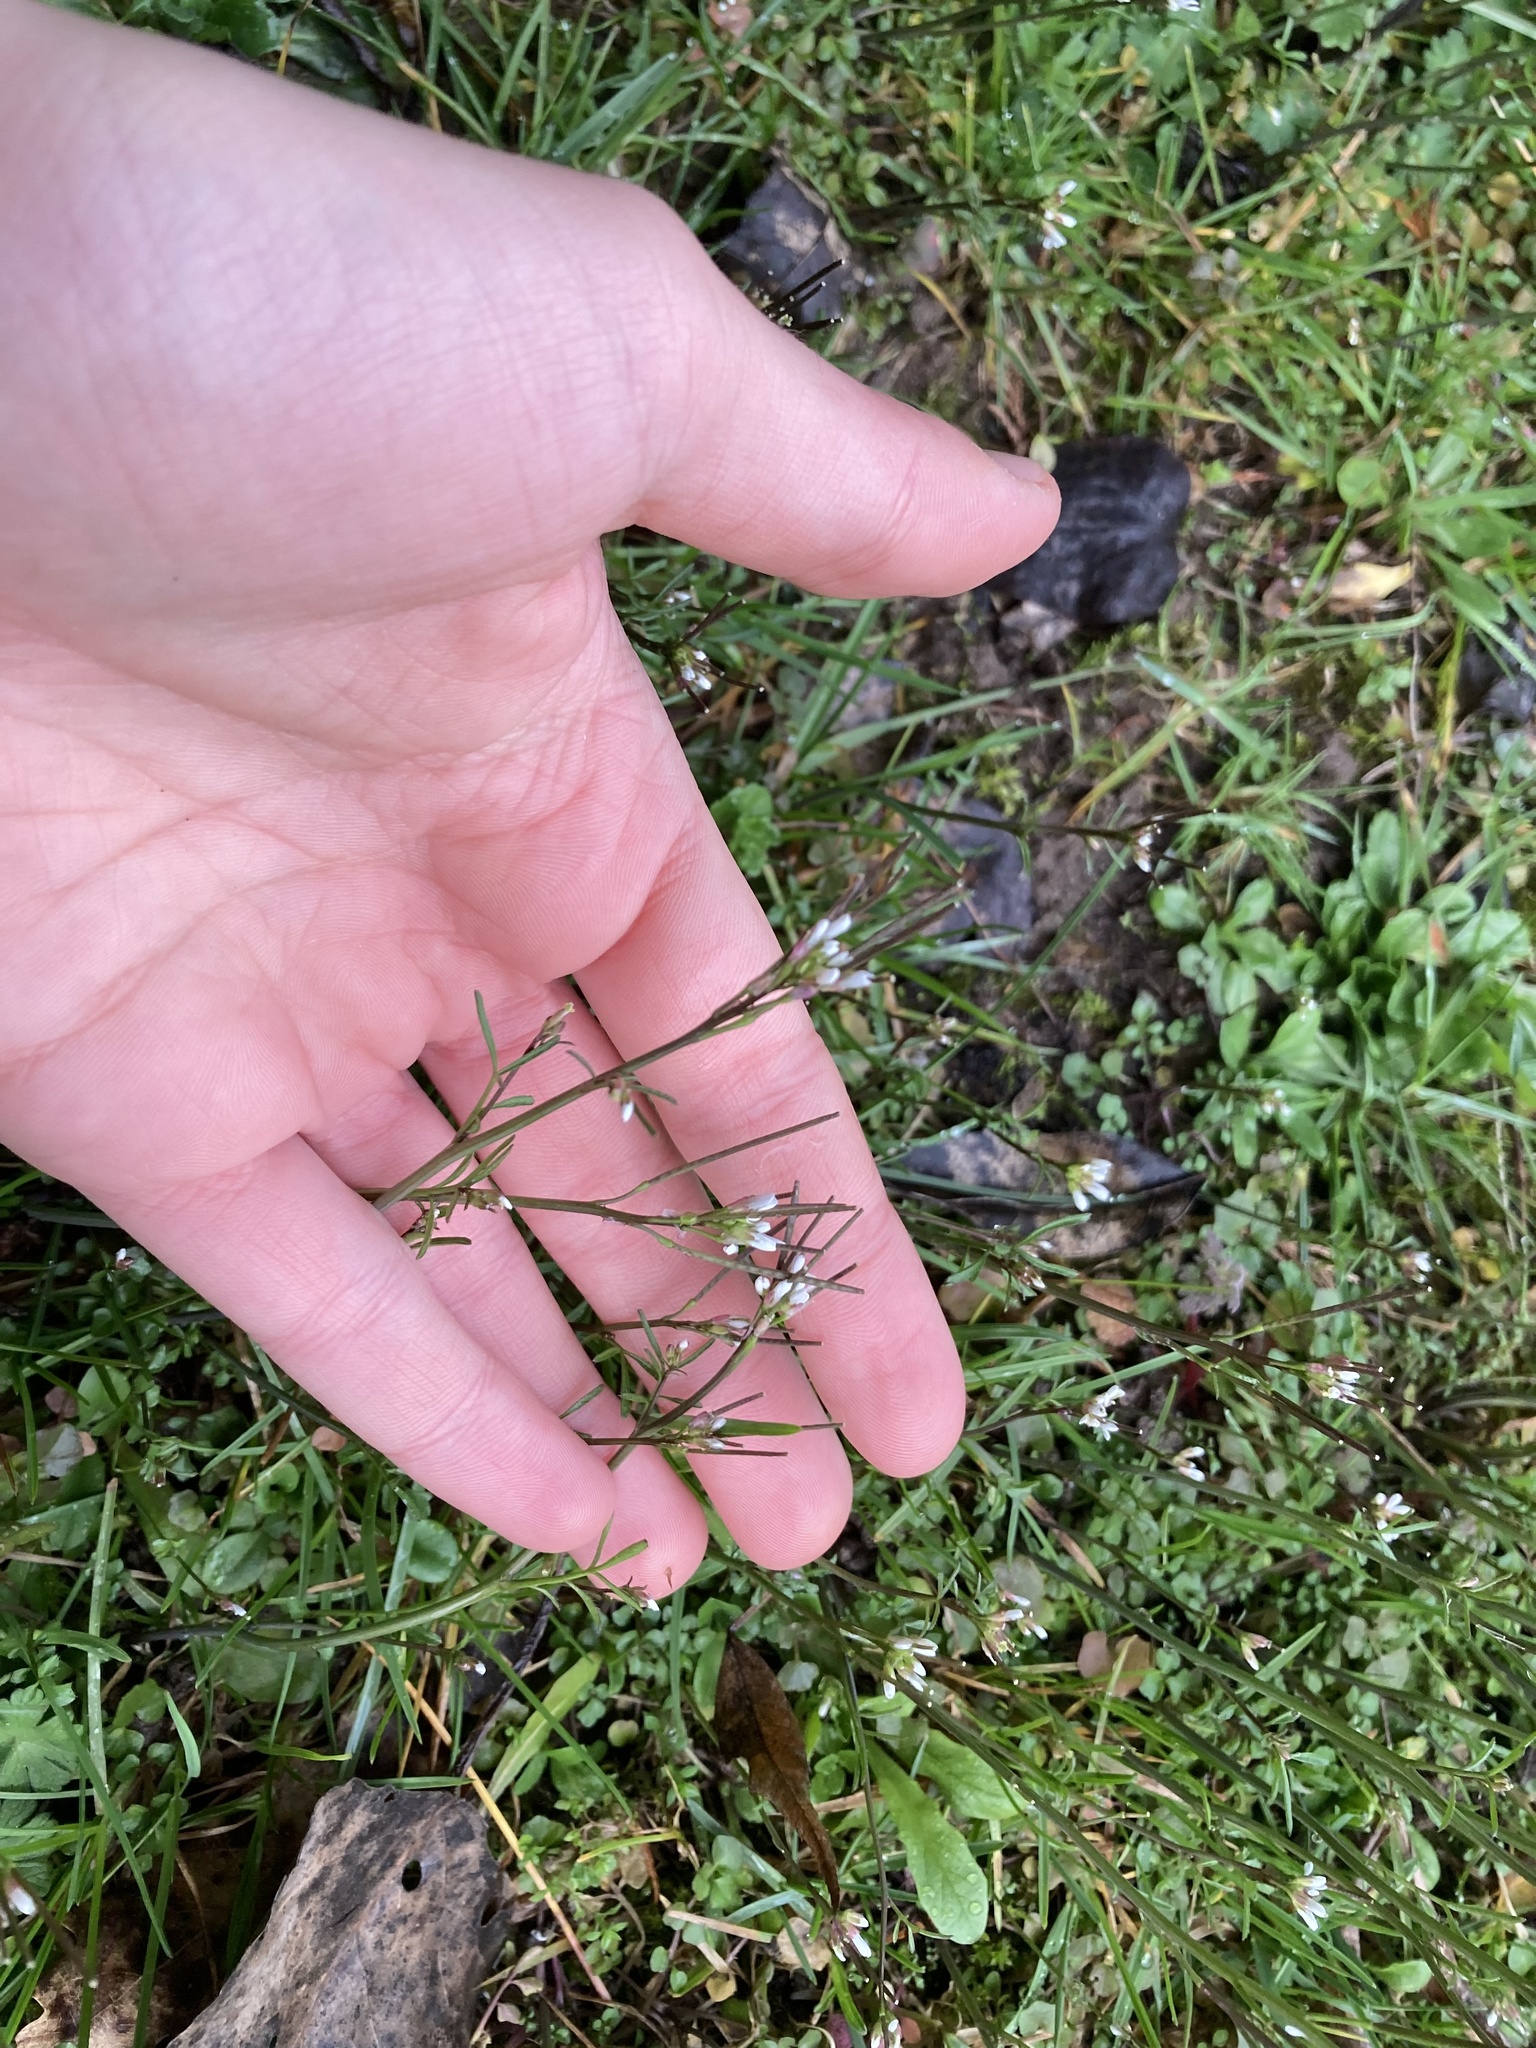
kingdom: Plantae
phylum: Tracheophyta
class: Magnoliopsida
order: Brassicales
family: Brassicaceae
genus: Cardamine
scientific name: Cardamine hirsuta
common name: Hairy bittercress
